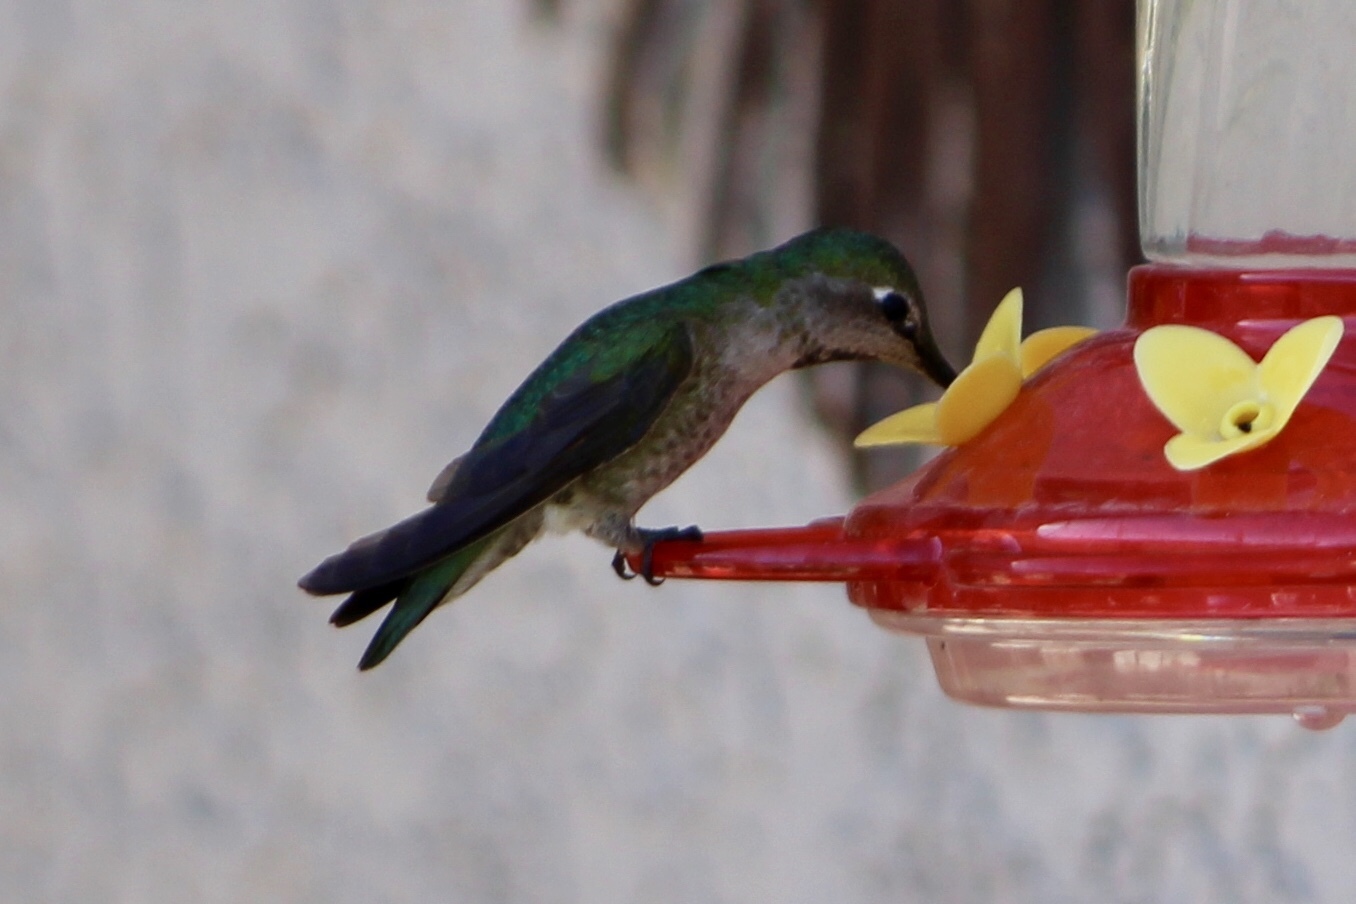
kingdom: Animalia
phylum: Chordata
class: Aves
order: Apodiformes
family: Trochilidae
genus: Calypte
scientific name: Calypte anna
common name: Anna's hummingbird
